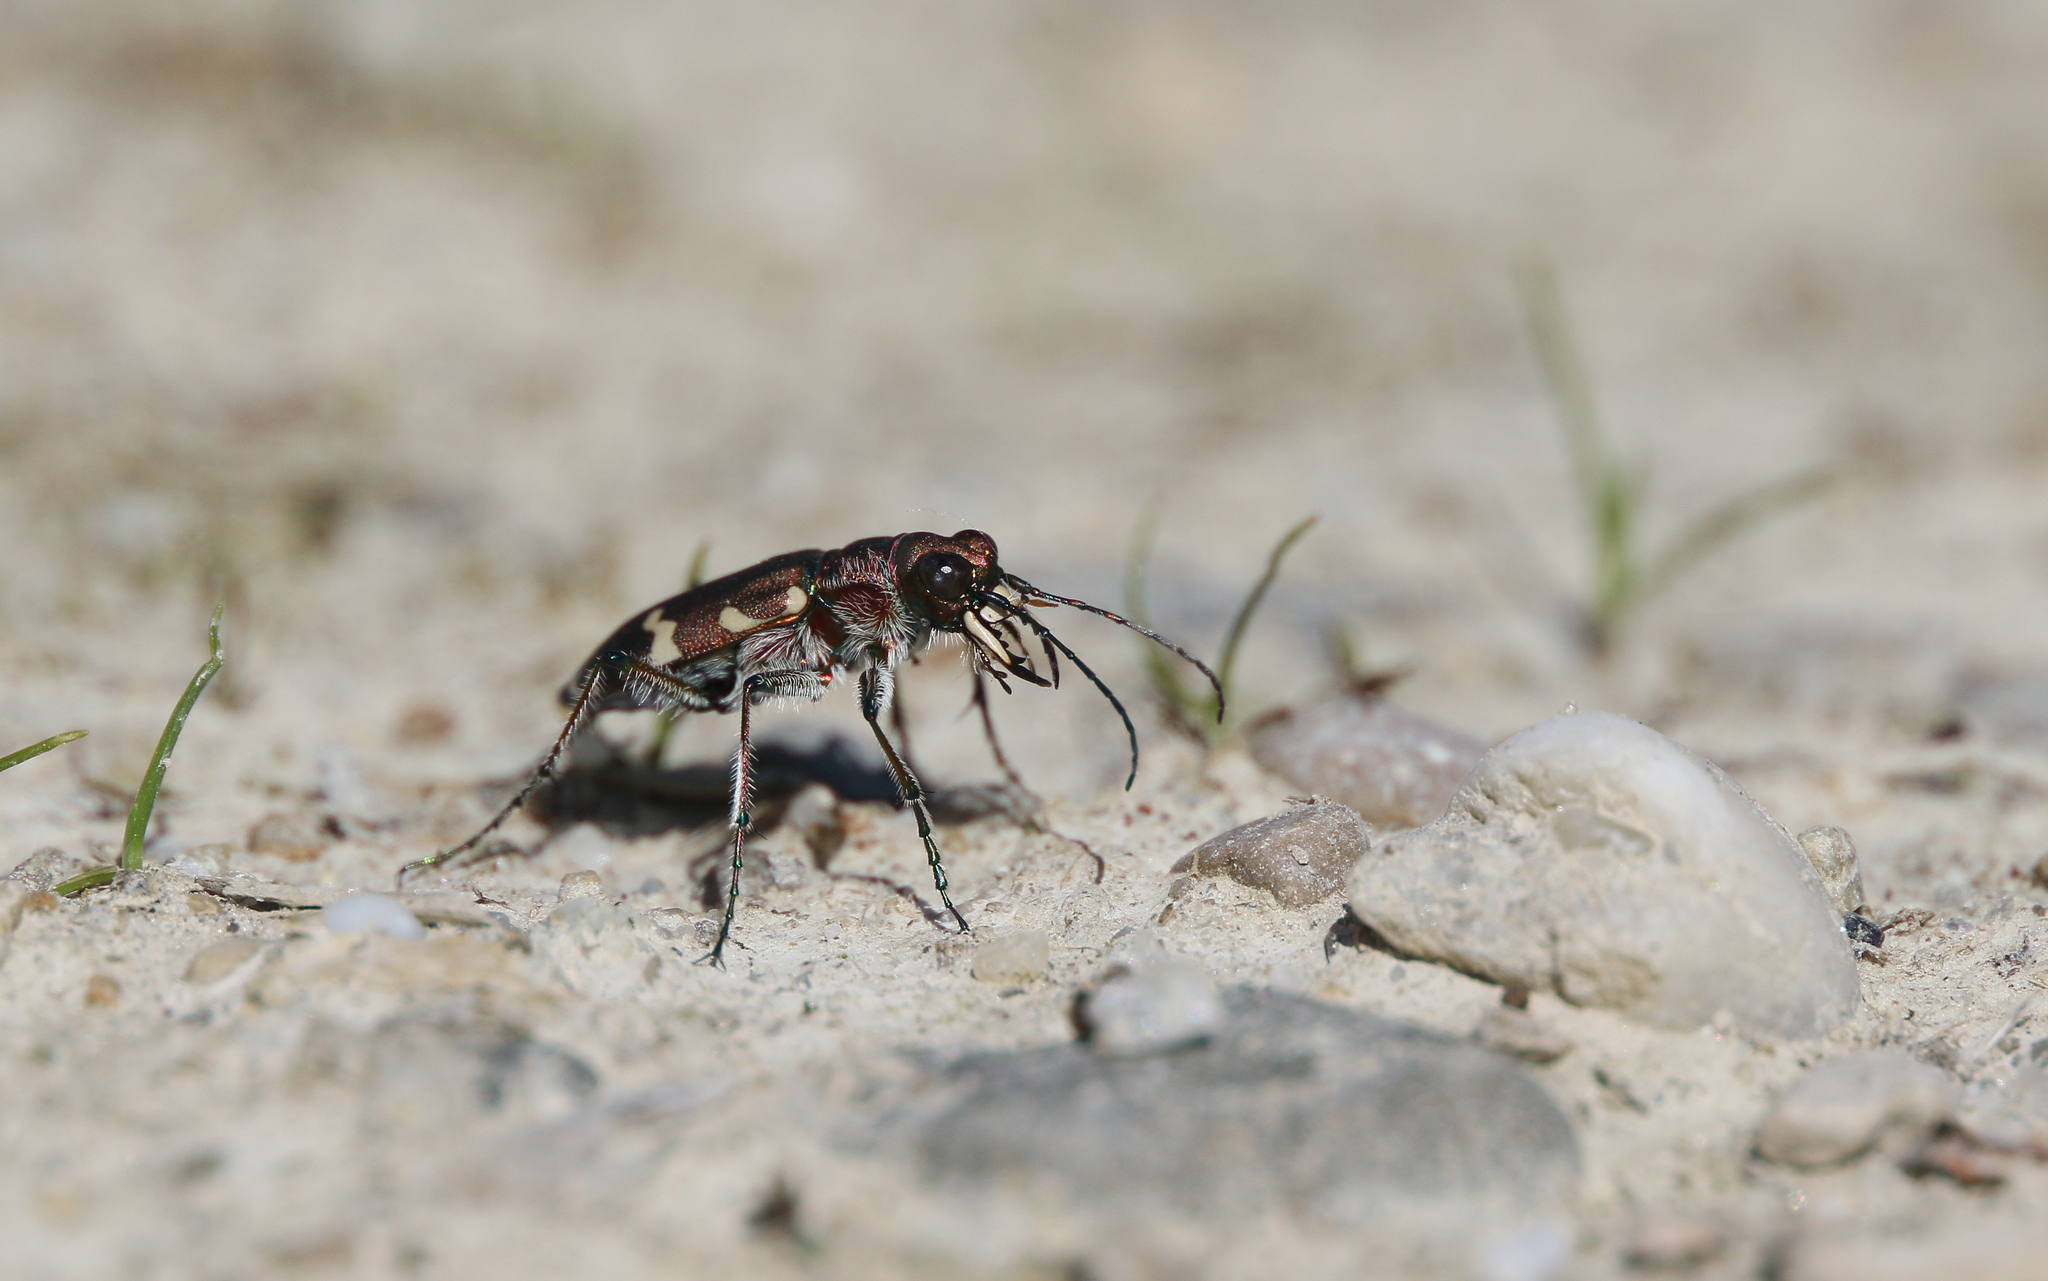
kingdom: Animalia
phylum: Arthropoda
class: Insecta
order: Coleoptera
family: Carabidae
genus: Cicindela
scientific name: Cicindela hybrida
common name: Northern dune tiger beetle
